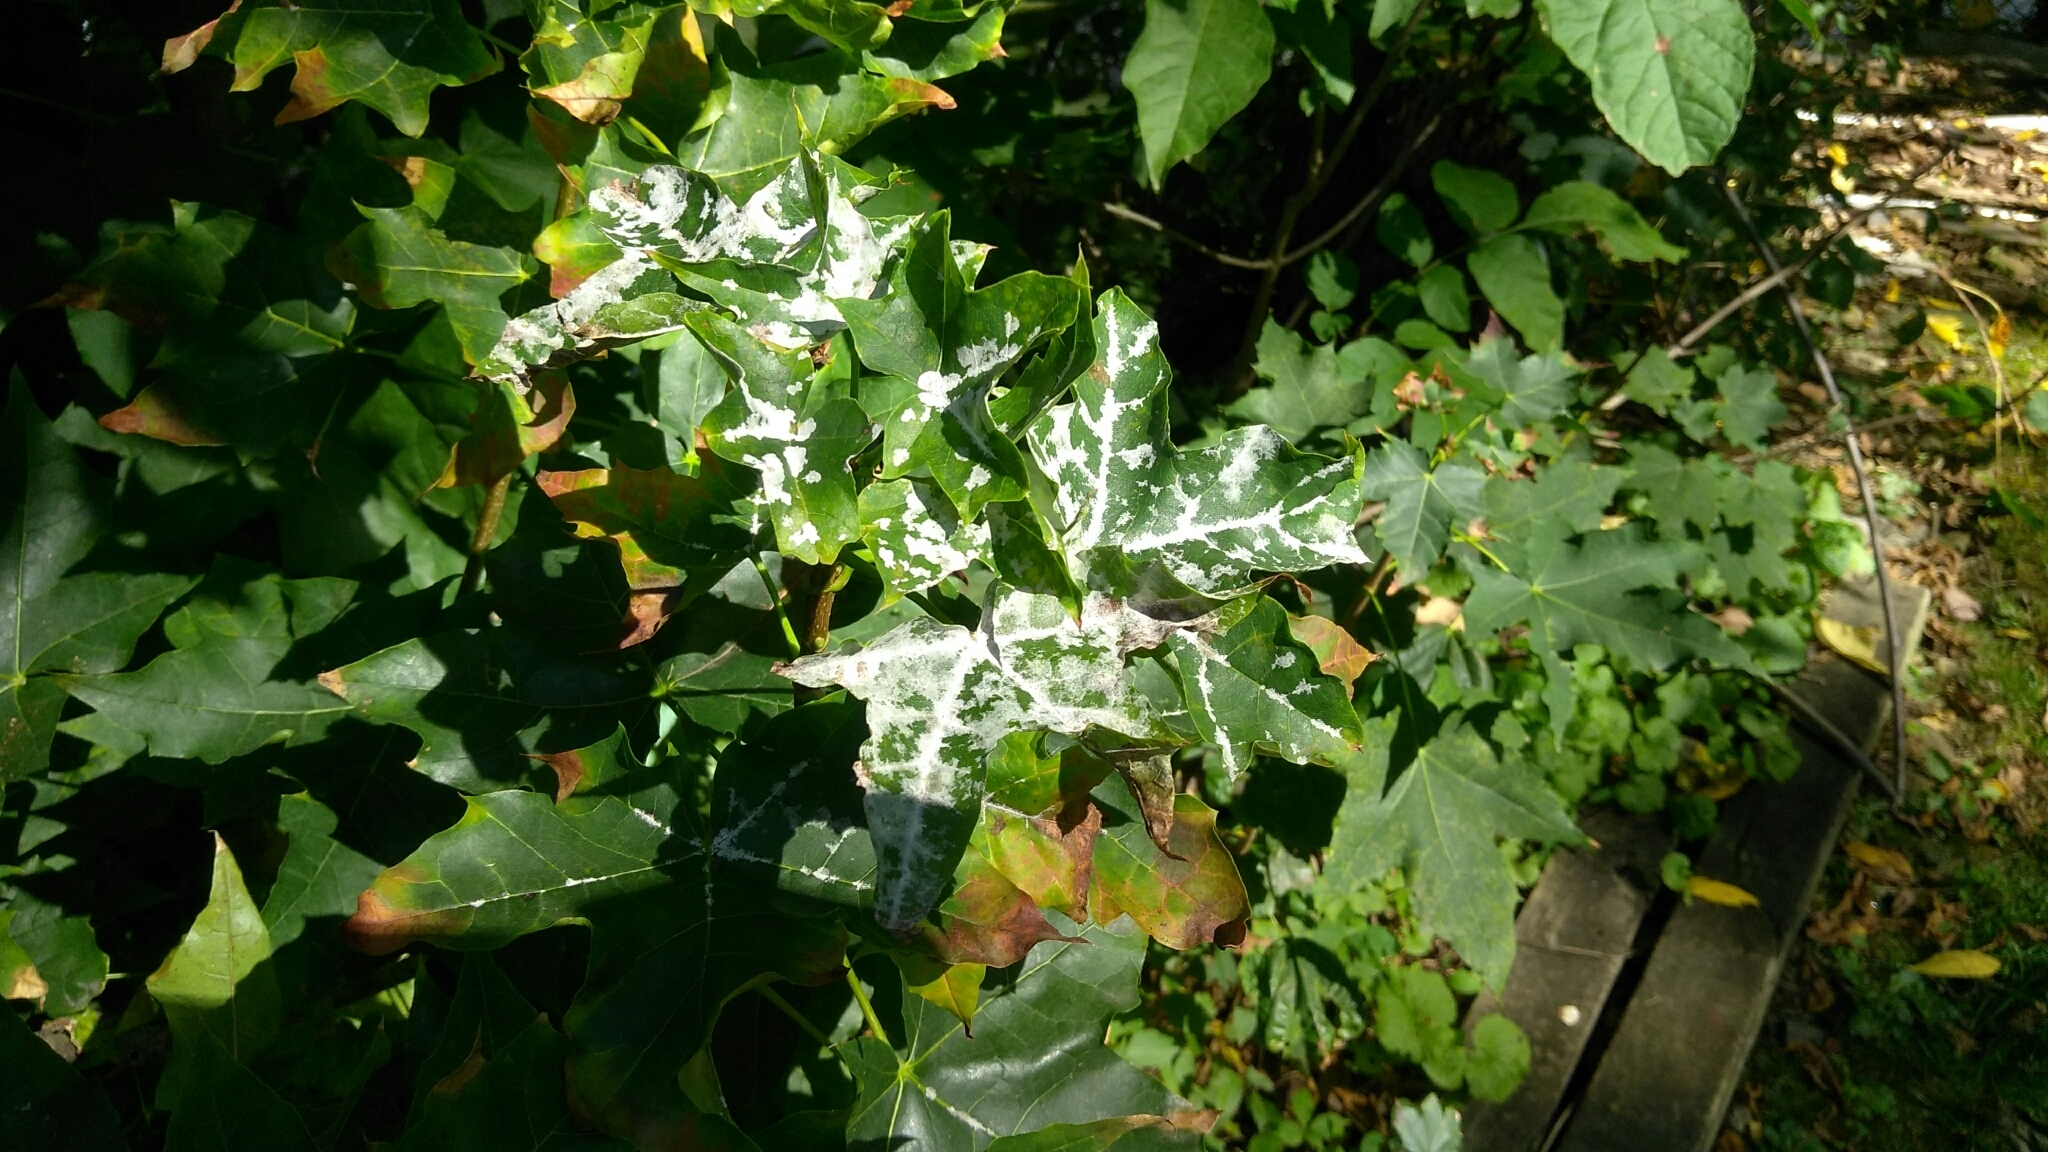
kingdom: Fungi
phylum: Ascomycota
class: Leotiomycetes
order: Helotiales
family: Erysiphaceae
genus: Sawadaea
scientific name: Sawadaea tulasnei
